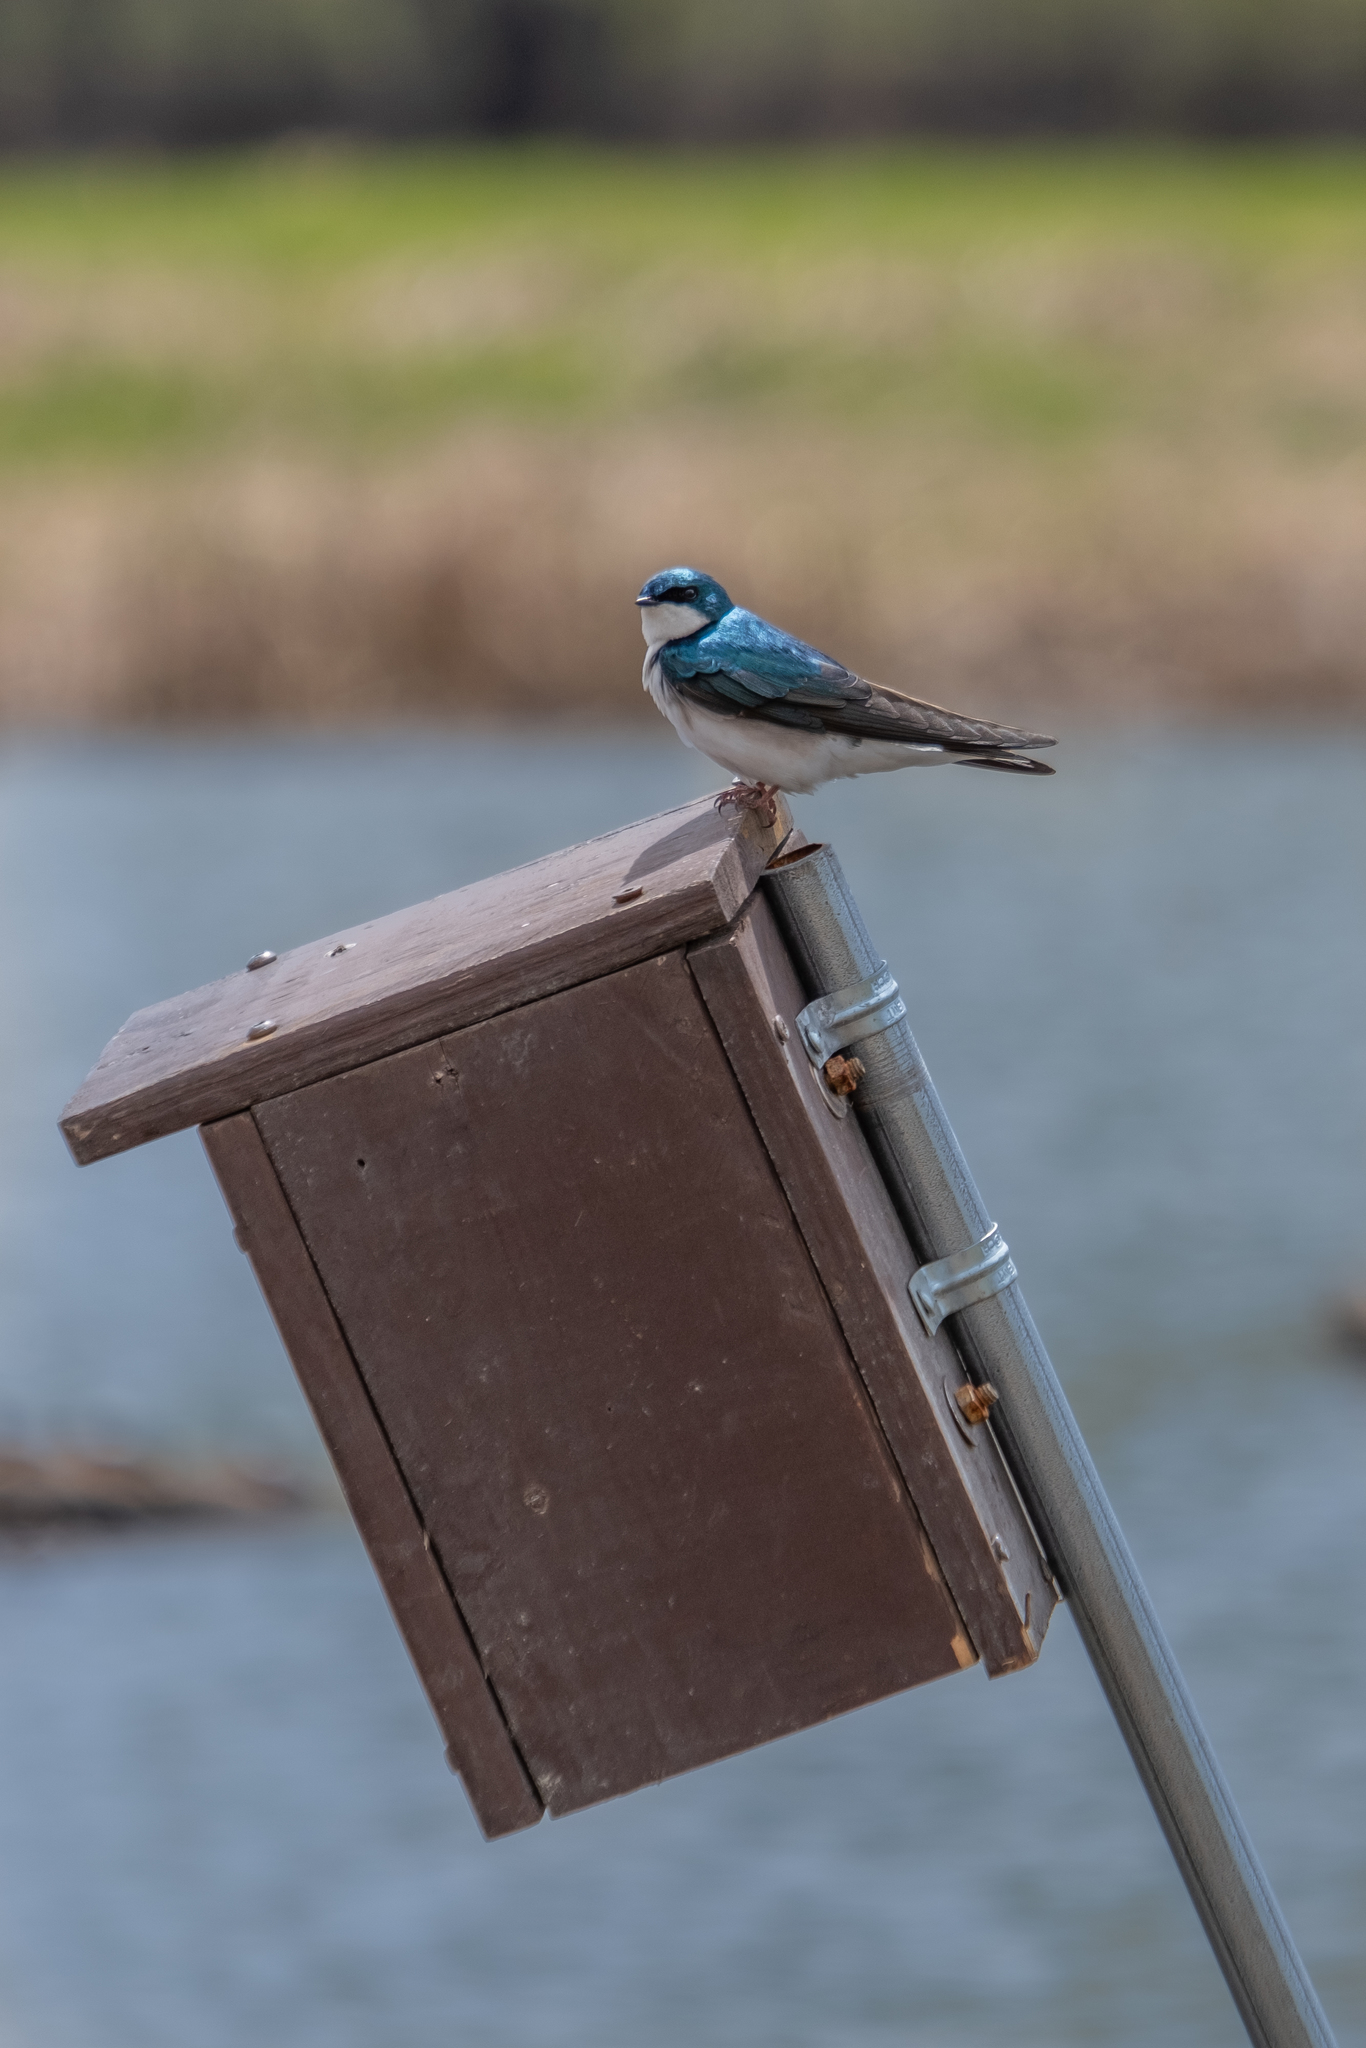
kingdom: Animalia
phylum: Chordata
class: Aves
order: Passeriformes
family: Hirundinidae
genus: Tachycineta
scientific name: Tachycineta bicolor
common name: Tree swallow
